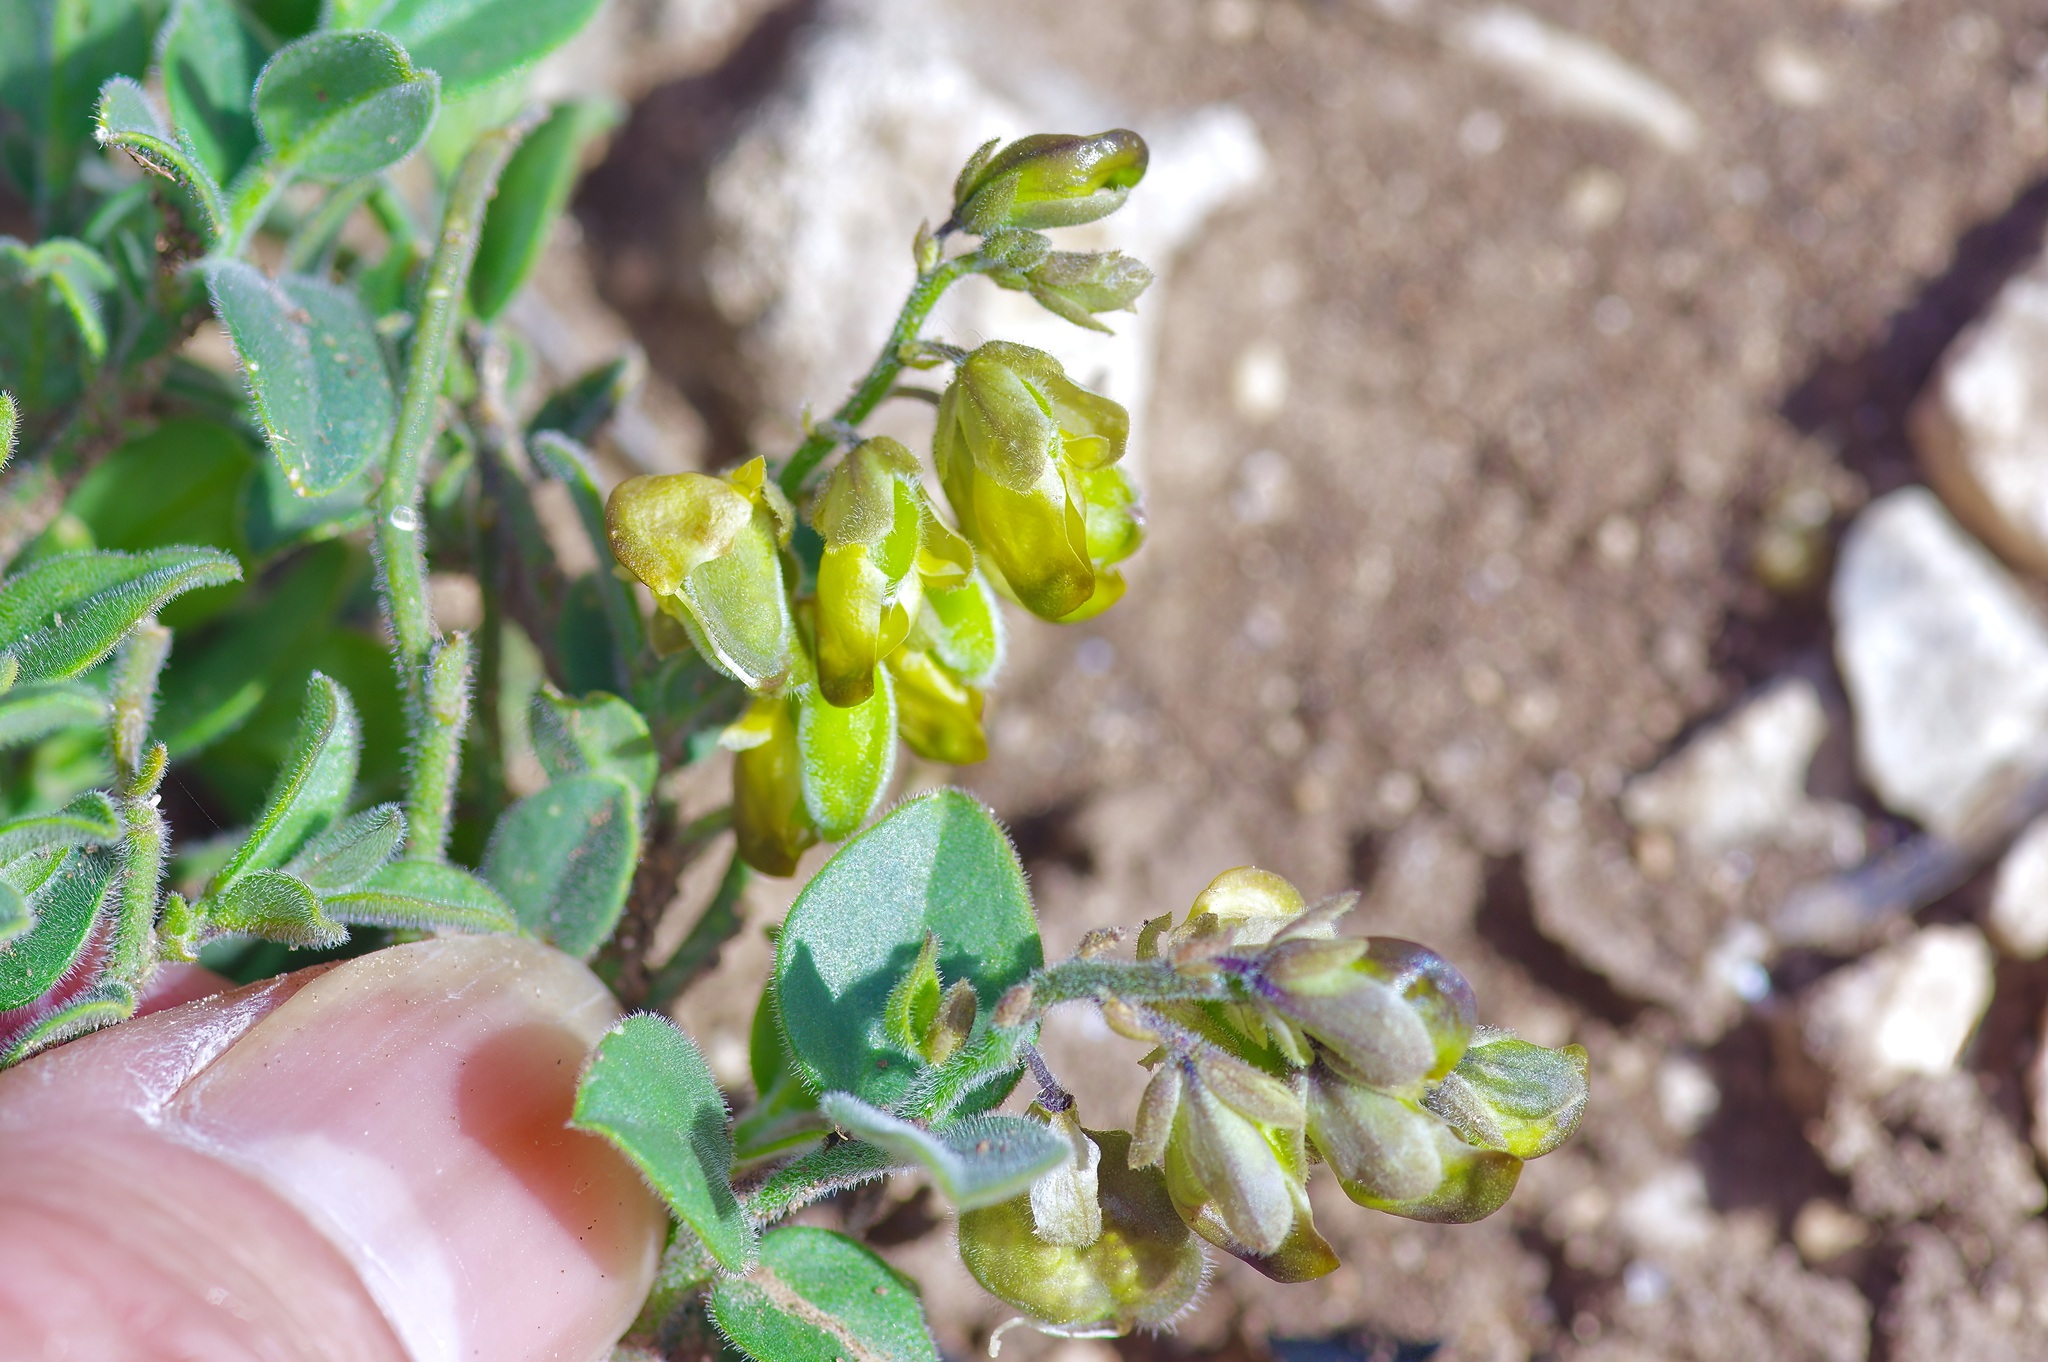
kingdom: Plantae
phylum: Tracheophyta
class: Magnoliopsida
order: Fabales
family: Polygalaceae
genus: Hebecarpa
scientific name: Hebecarpa ovatifolia
